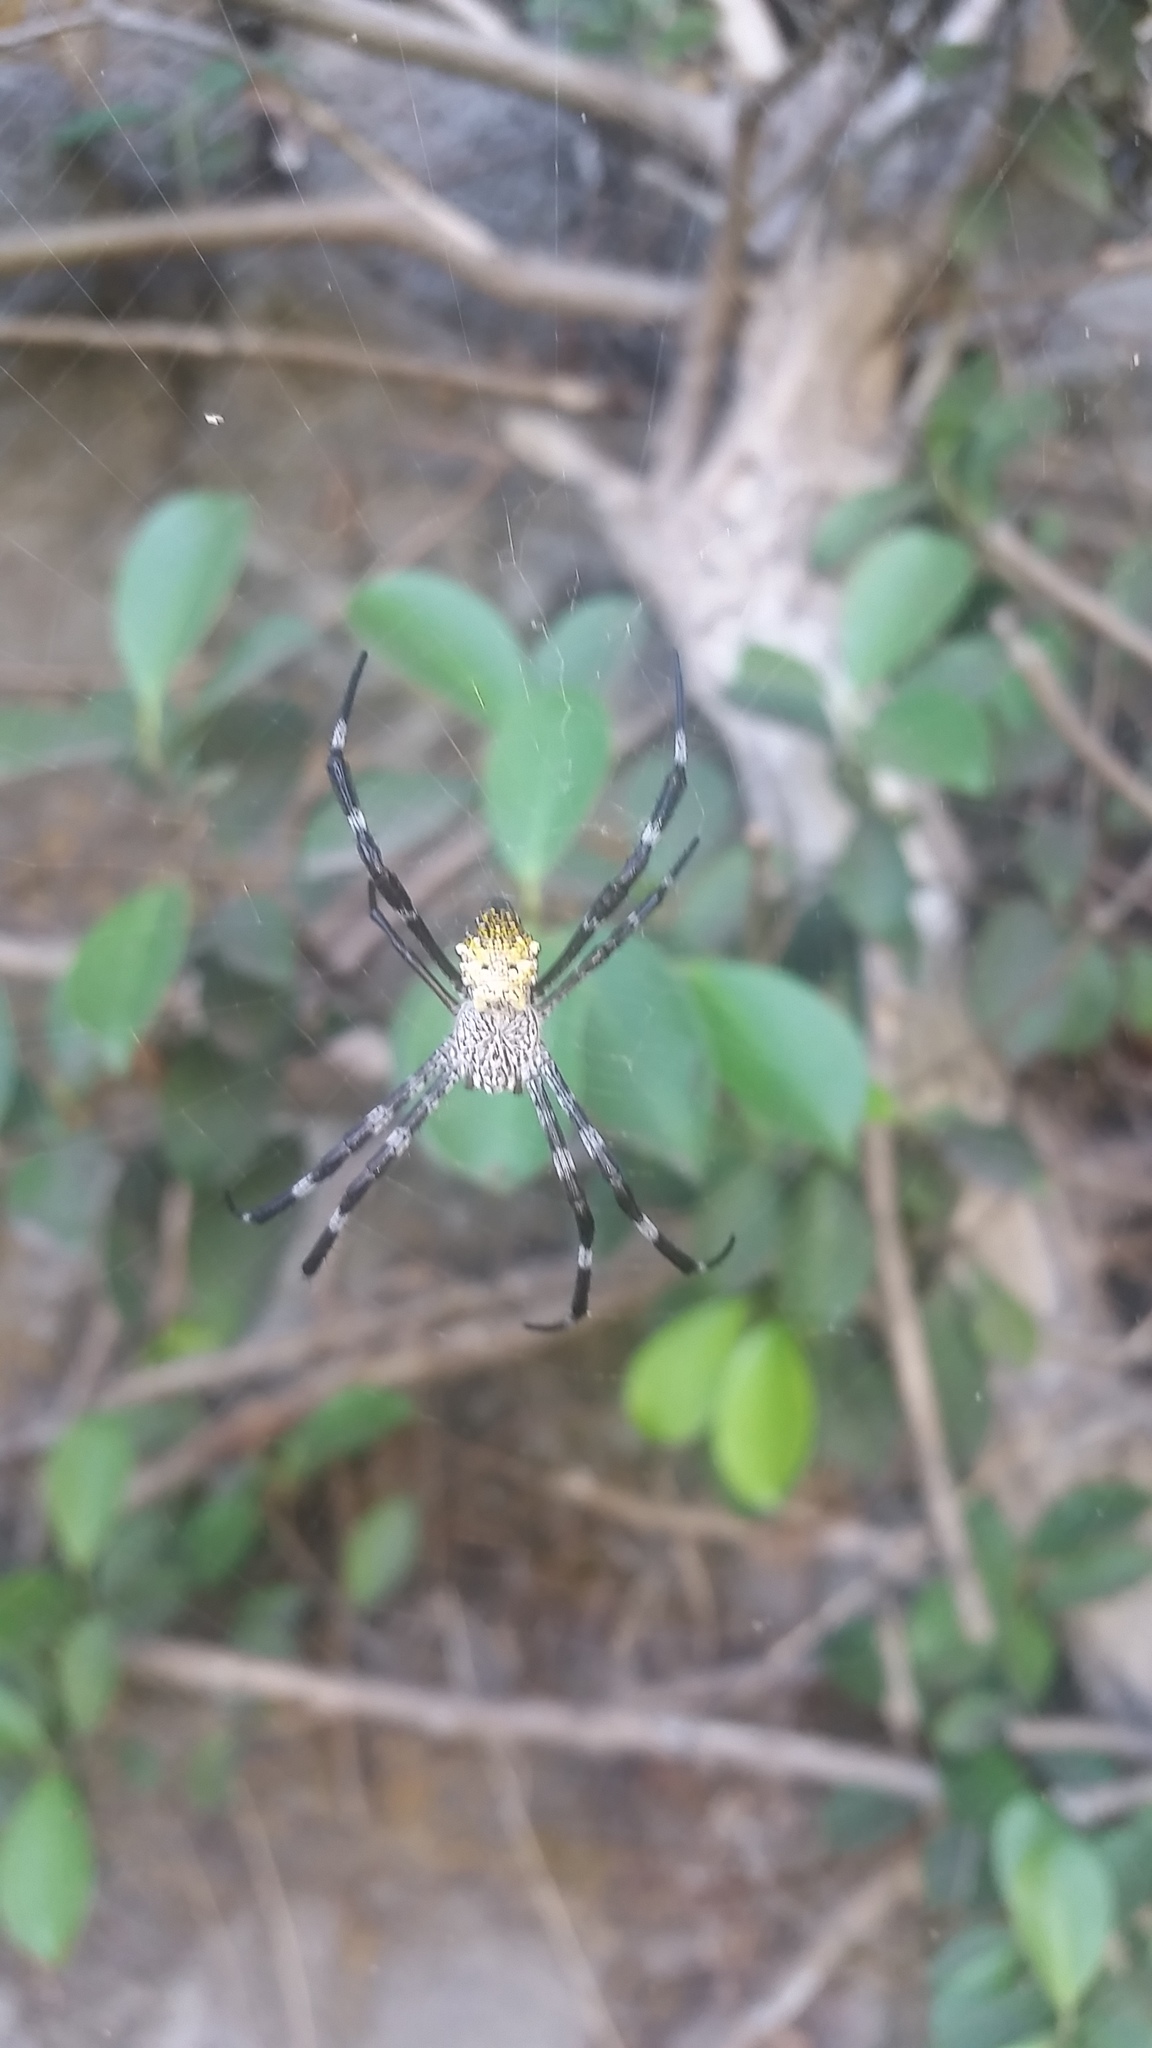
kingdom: Animalia
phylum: Arthropoda
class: Arachnida
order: Araneae
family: Araneidae
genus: Argiope
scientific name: Argiope appensa
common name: Garden spider
